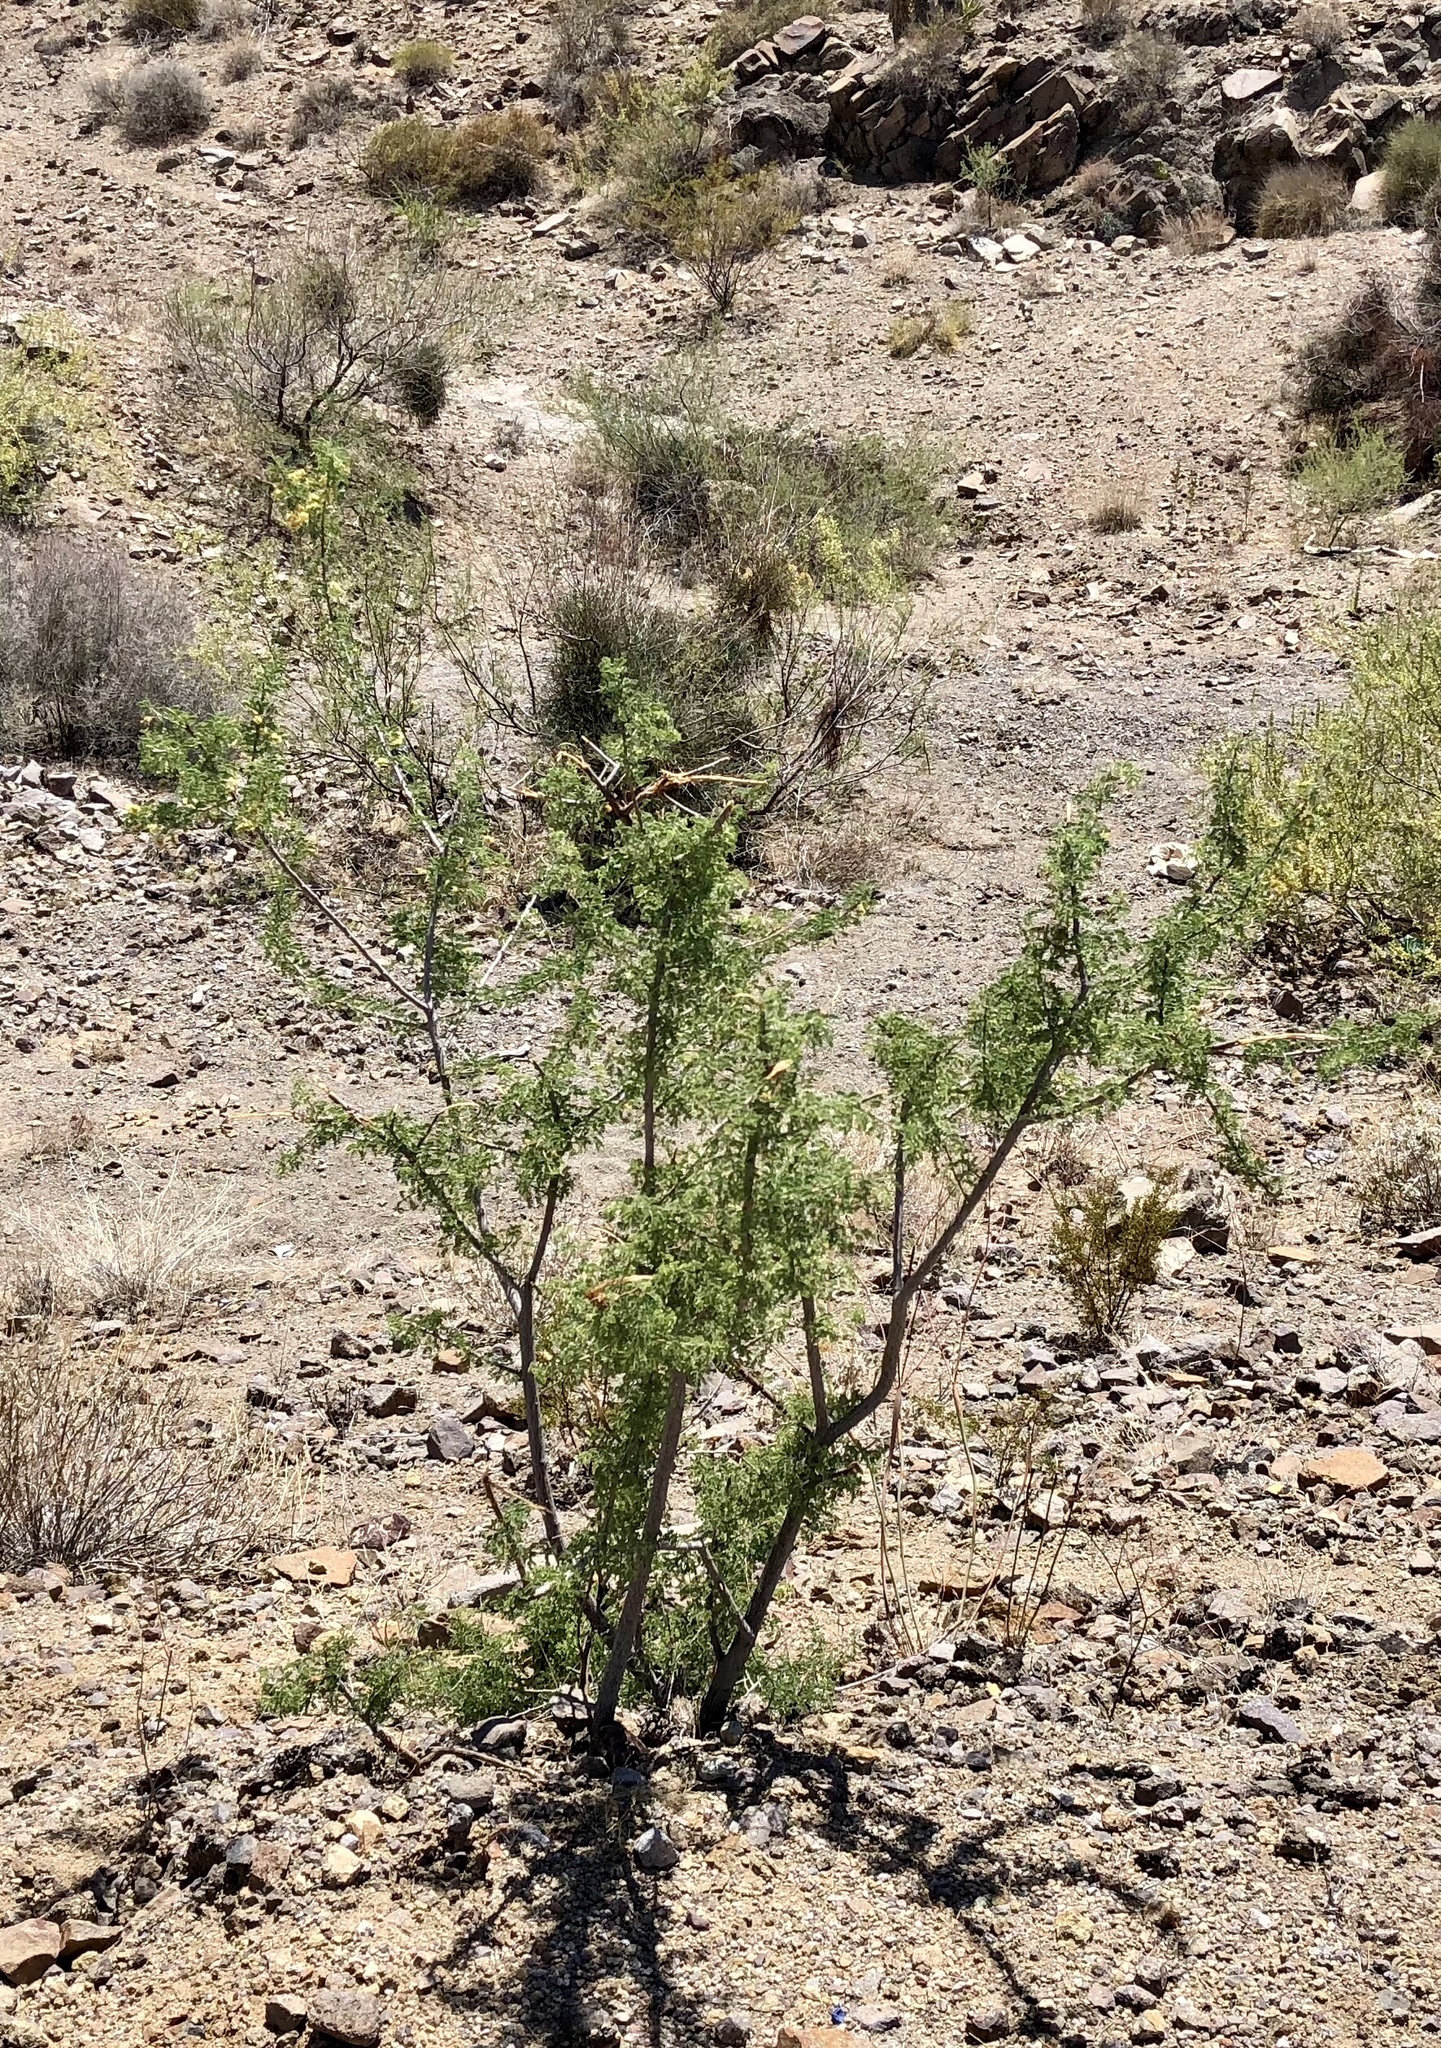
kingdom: Plantae
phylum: Tracheophyta
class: Magnoliopsida
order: Fabales
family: Fabaceae
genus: Senegalia
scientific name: Senegalia greggii
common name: Texas-mimosa
